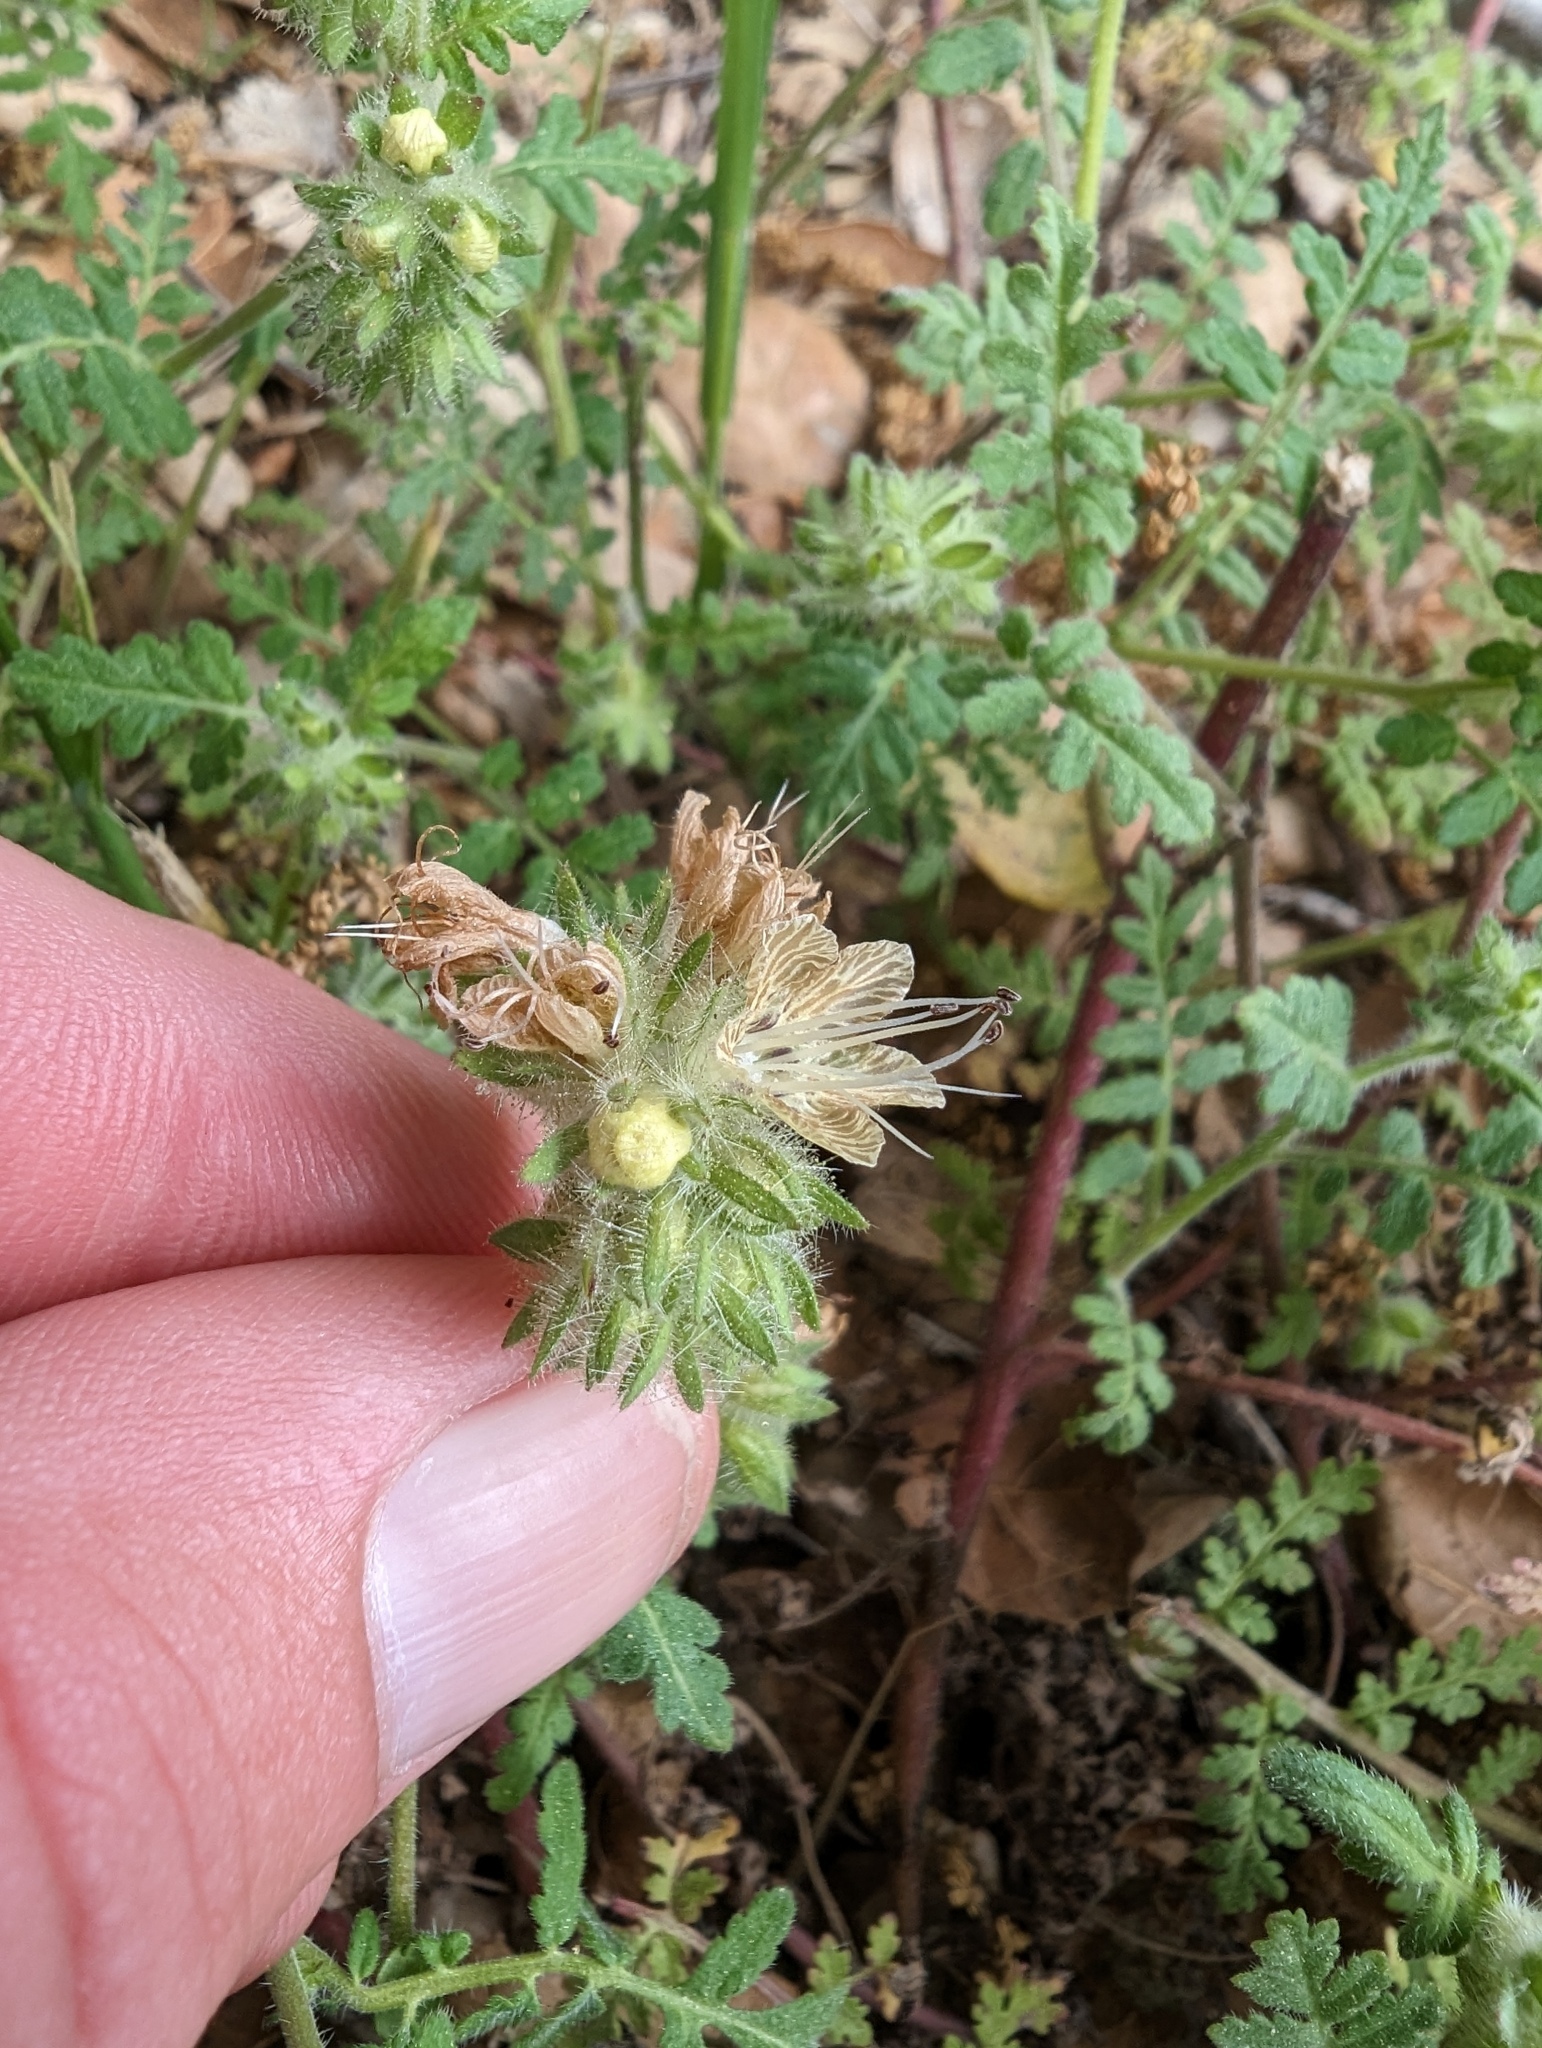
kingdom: Plantae
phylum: Tracheophyta
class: Magnoliopsida
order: Boraginales
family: Hydrophyllaceae
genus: Phacelia
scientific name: Phacelia distans
